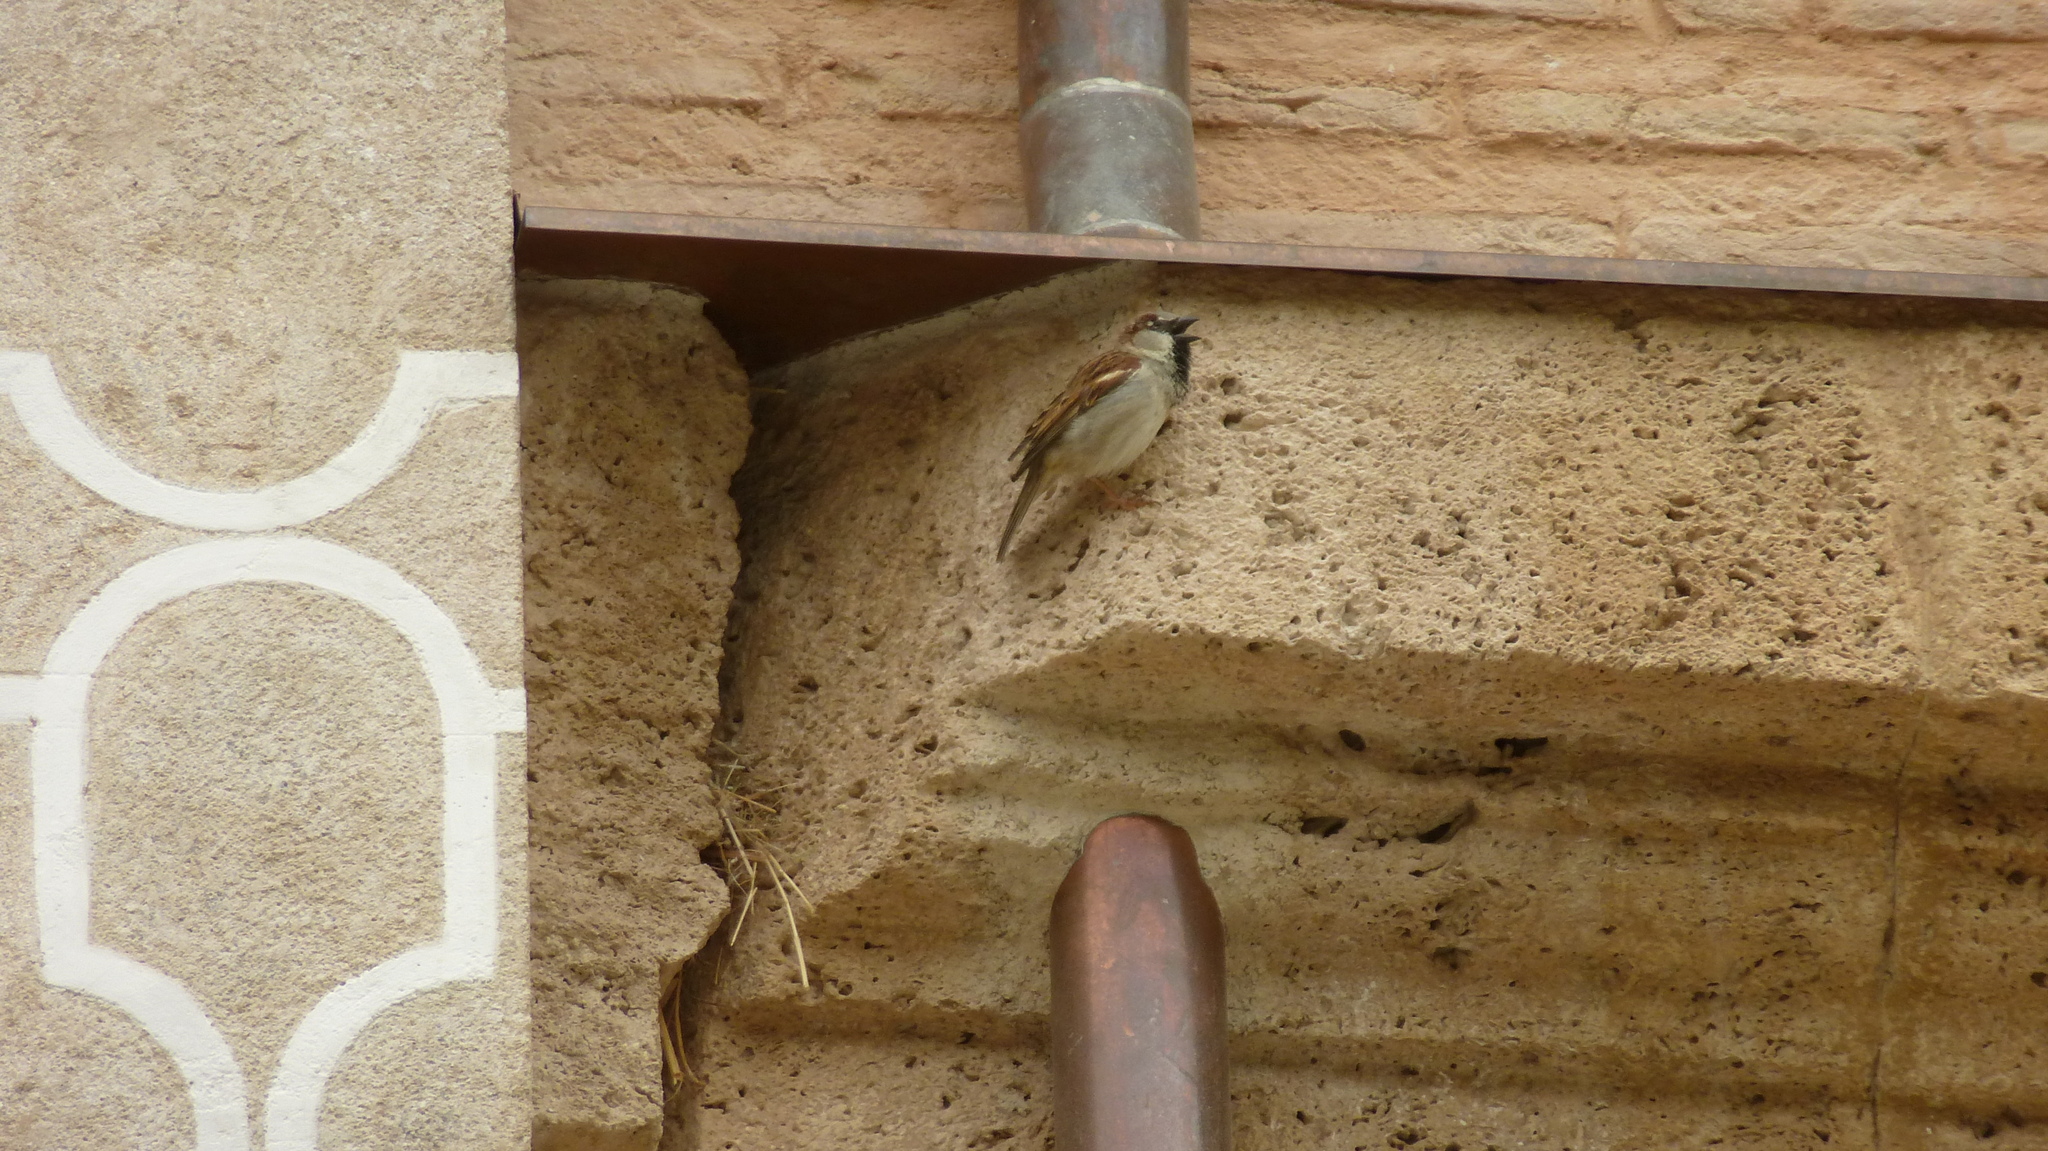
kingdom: Animalia
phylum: Chordata
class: Aves
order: Passeriformes
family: Passeridae
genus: Passer
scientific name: Passer domesticus
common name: House sparrow
